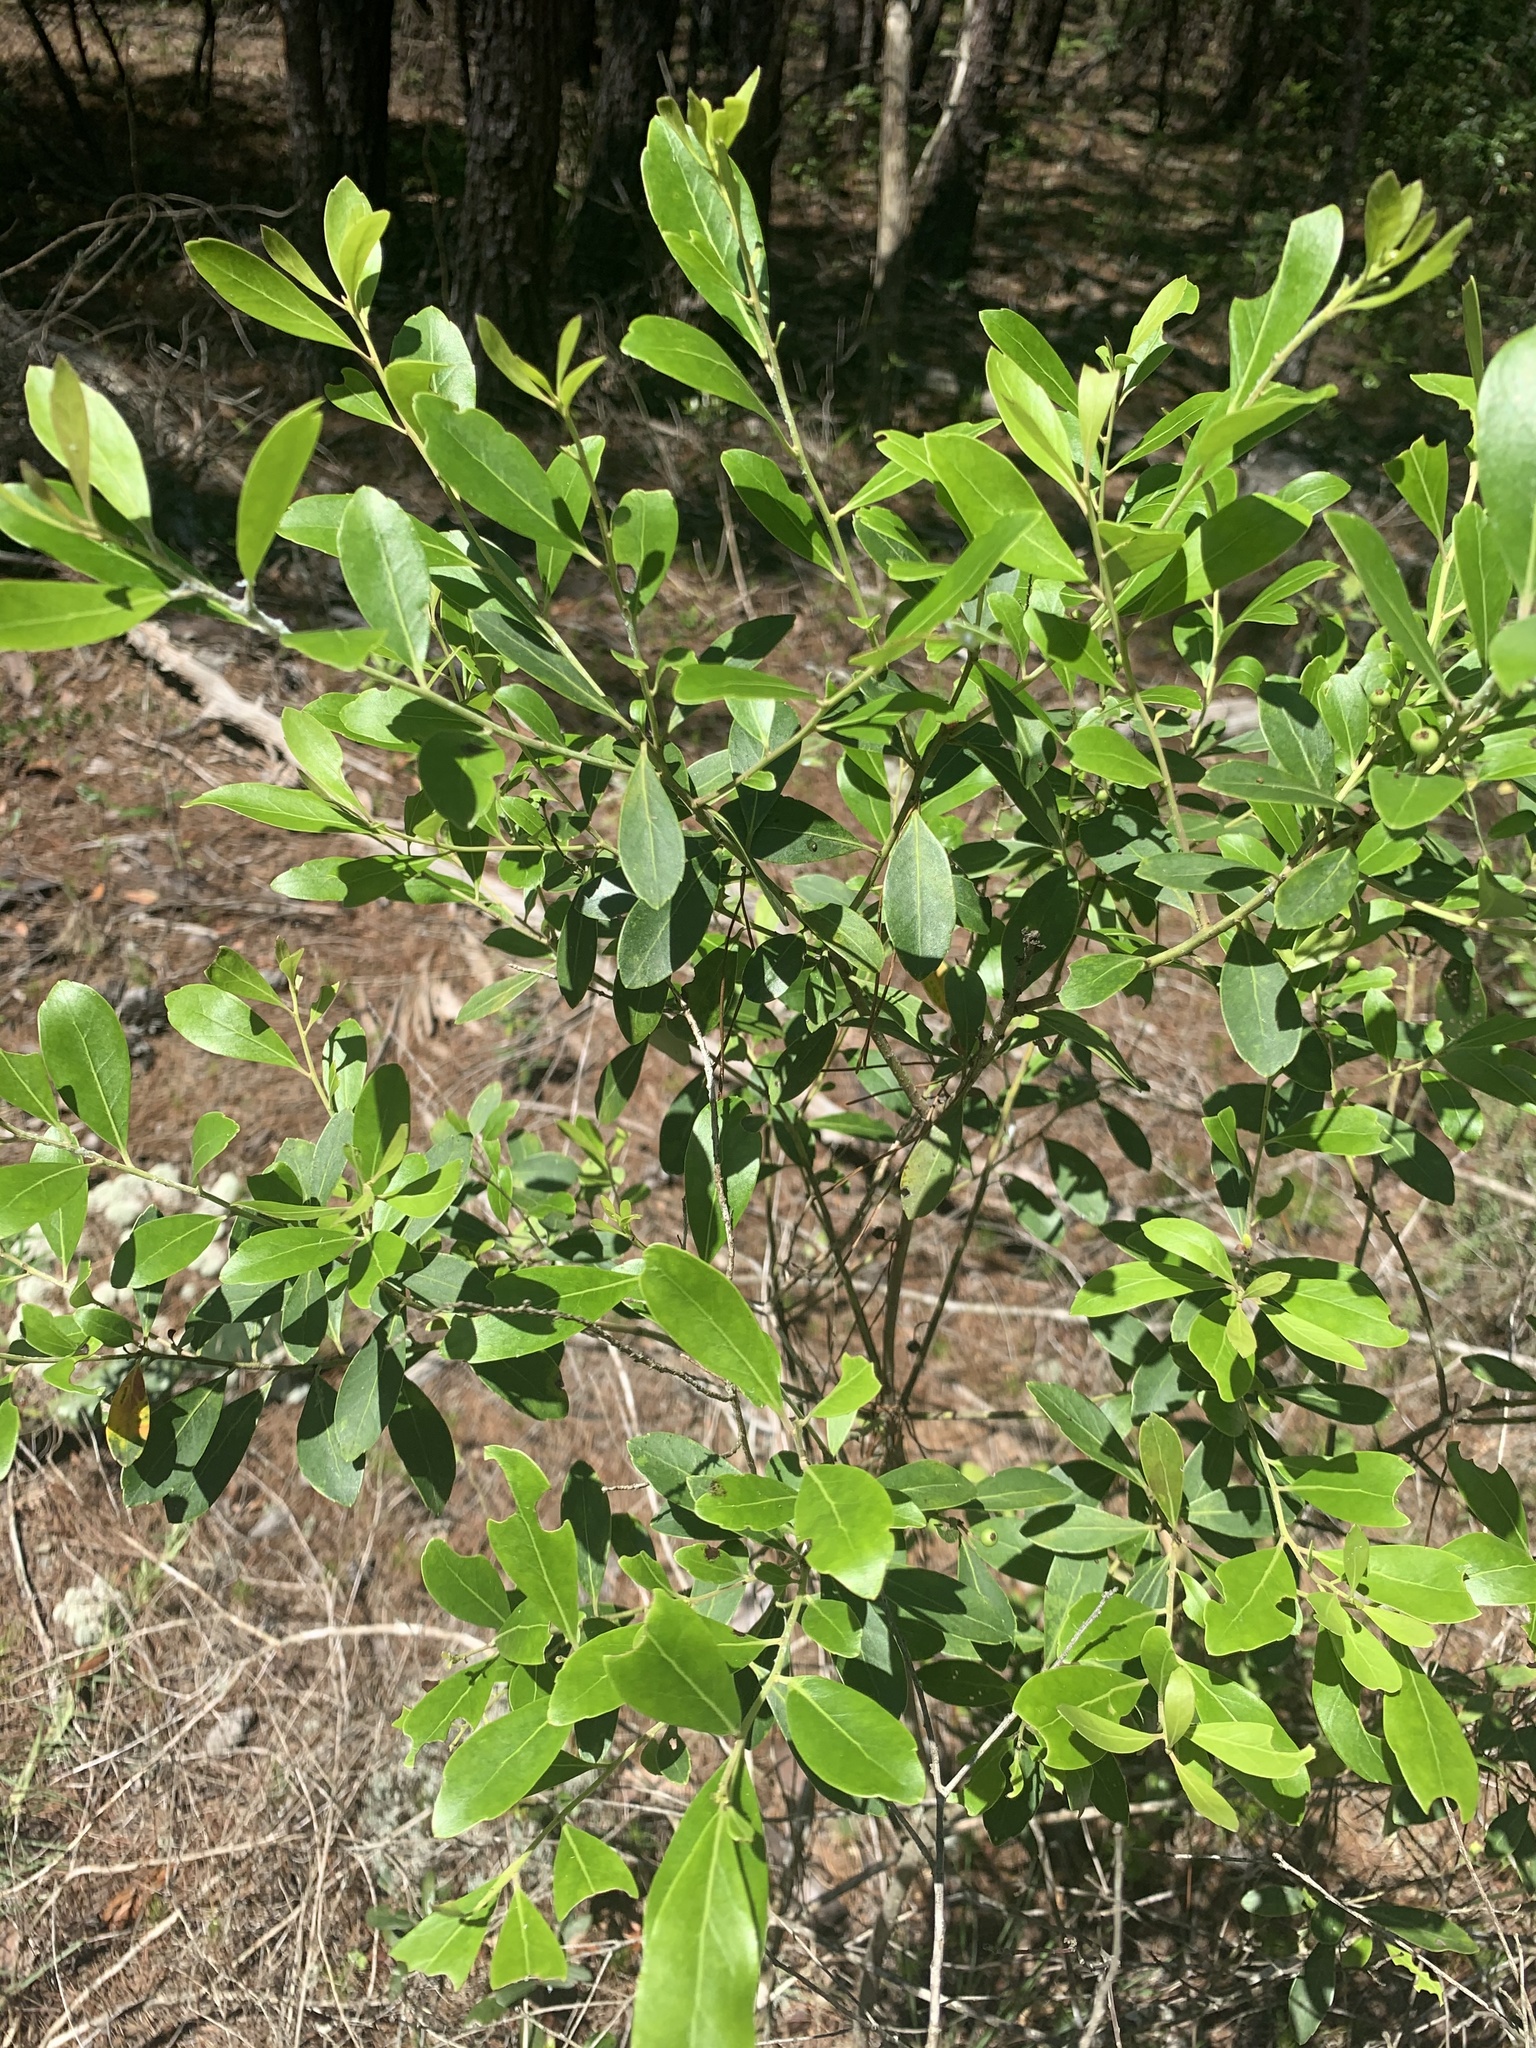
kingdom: Plantae
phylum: Tracheophyta
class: Magnoliopsida
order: Aquifoliales
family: Aquifoliaceae
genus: Ilex
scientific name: Ilex glabra
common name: Bitter gallberry
